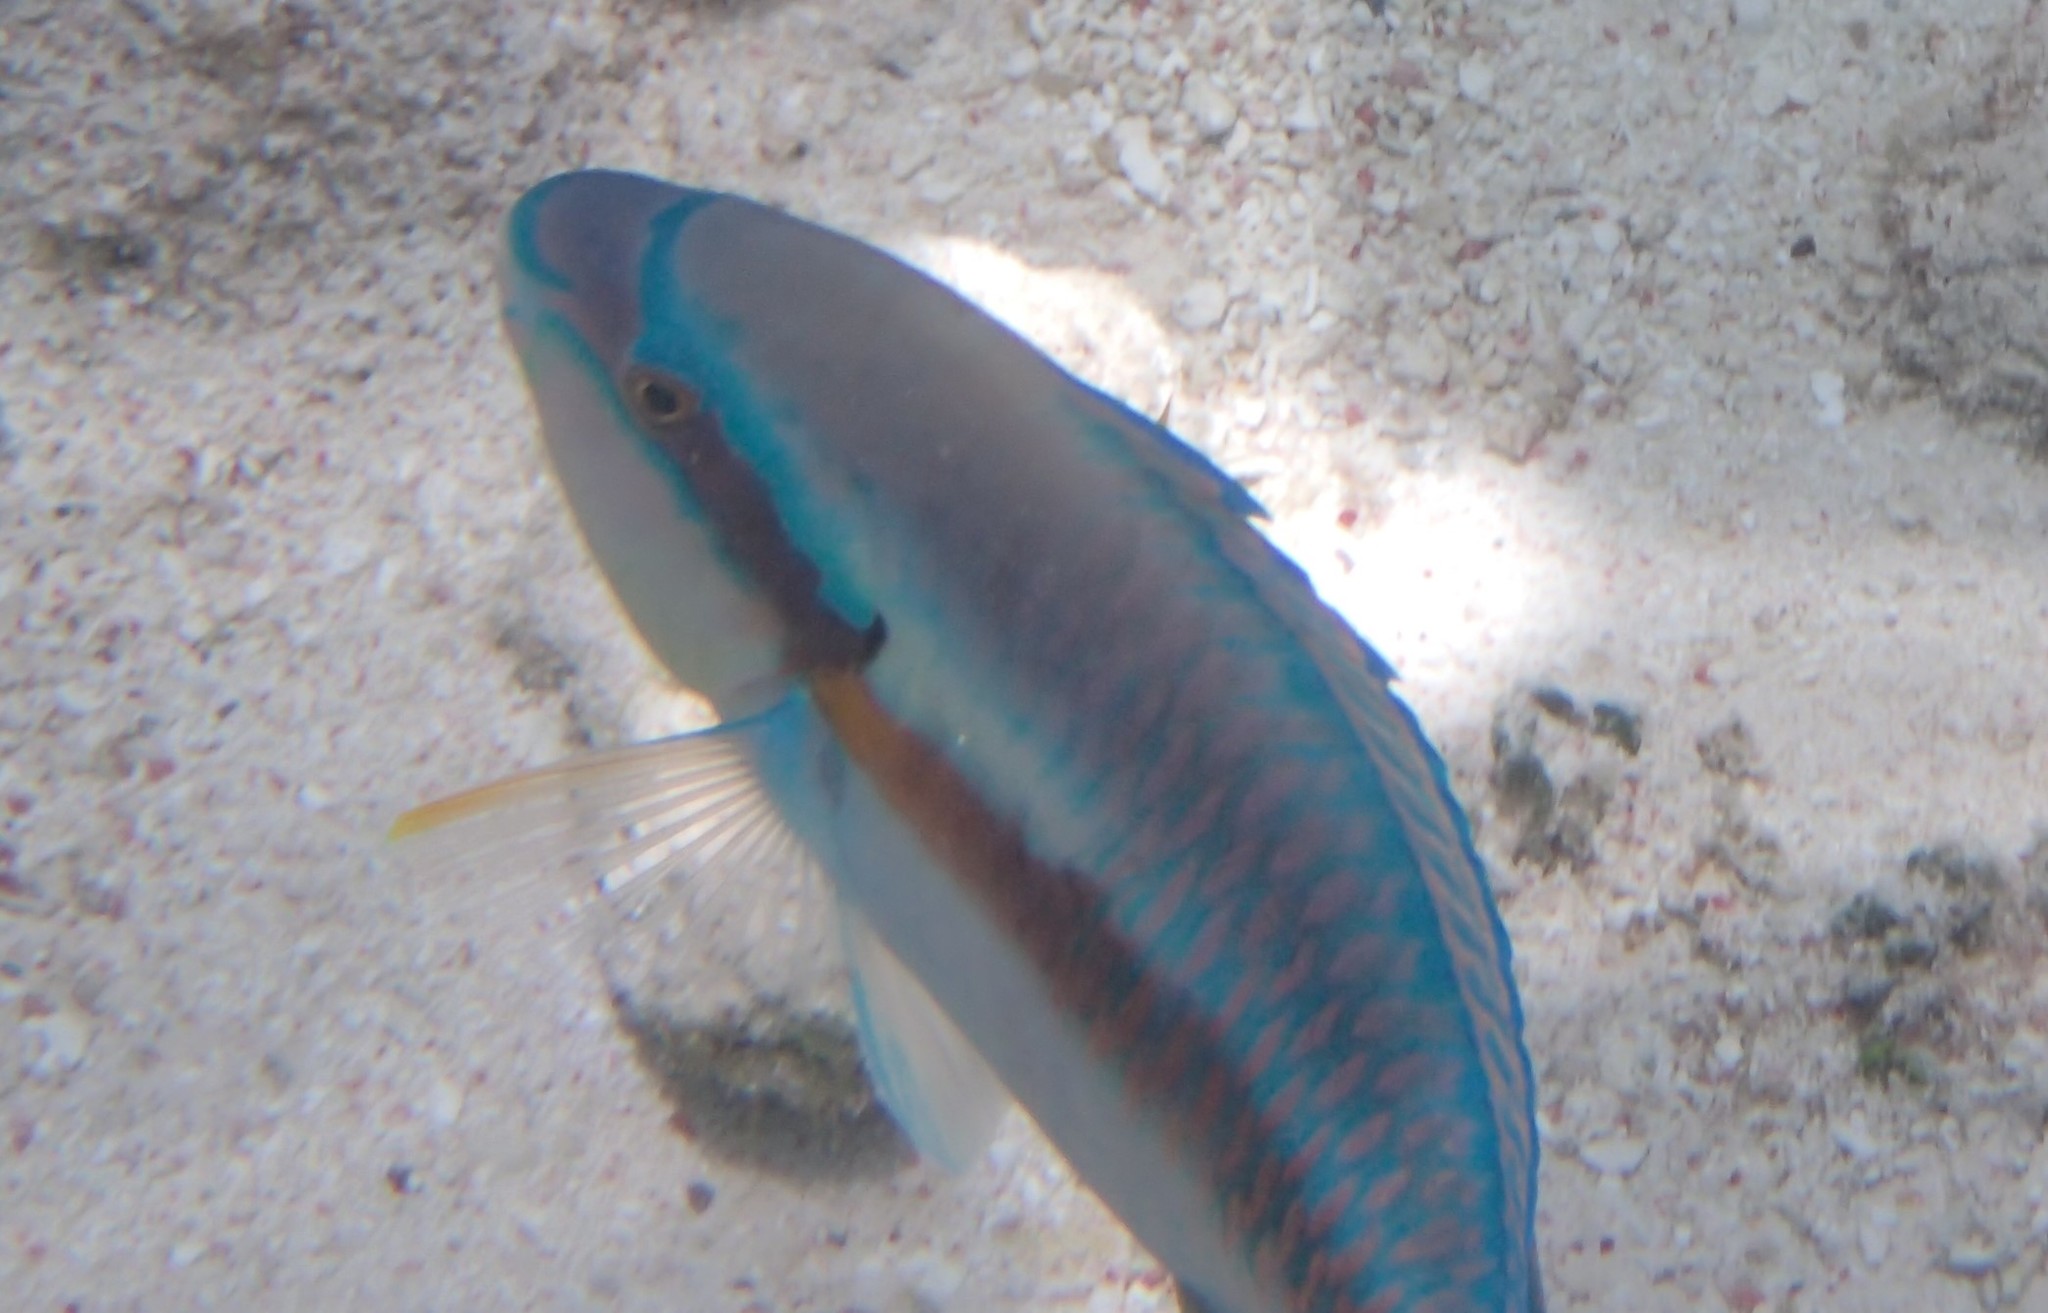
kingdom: Animalia
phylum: Chordata
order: Perciformes
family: Scaridae
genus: Scarus
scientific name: Scarus iseri
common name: Striped parrotfish
